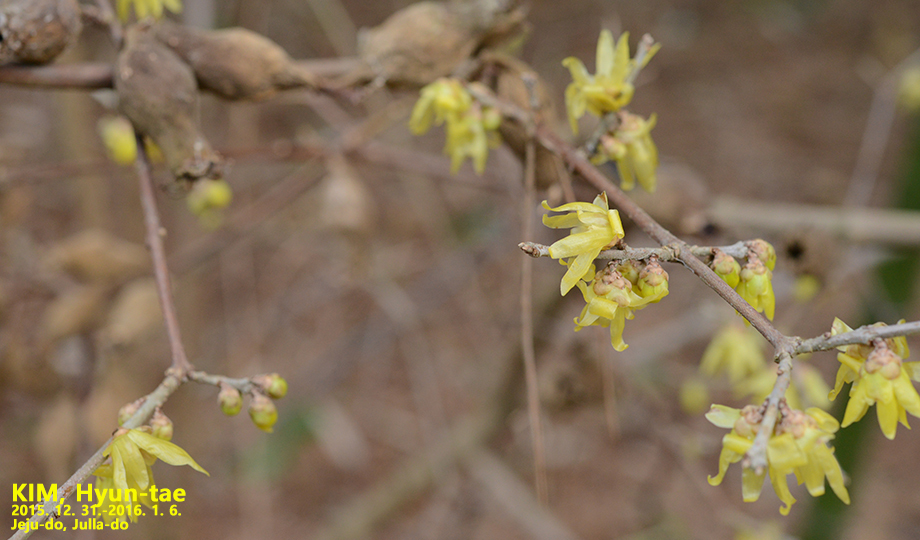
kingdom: Plantae
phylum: Tracheophyta
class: Magnoliopsida
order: Laurales
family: Calycanthaceae
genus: Chimonanthus
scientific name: Chimonanthus praecox
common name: Wintersweet
